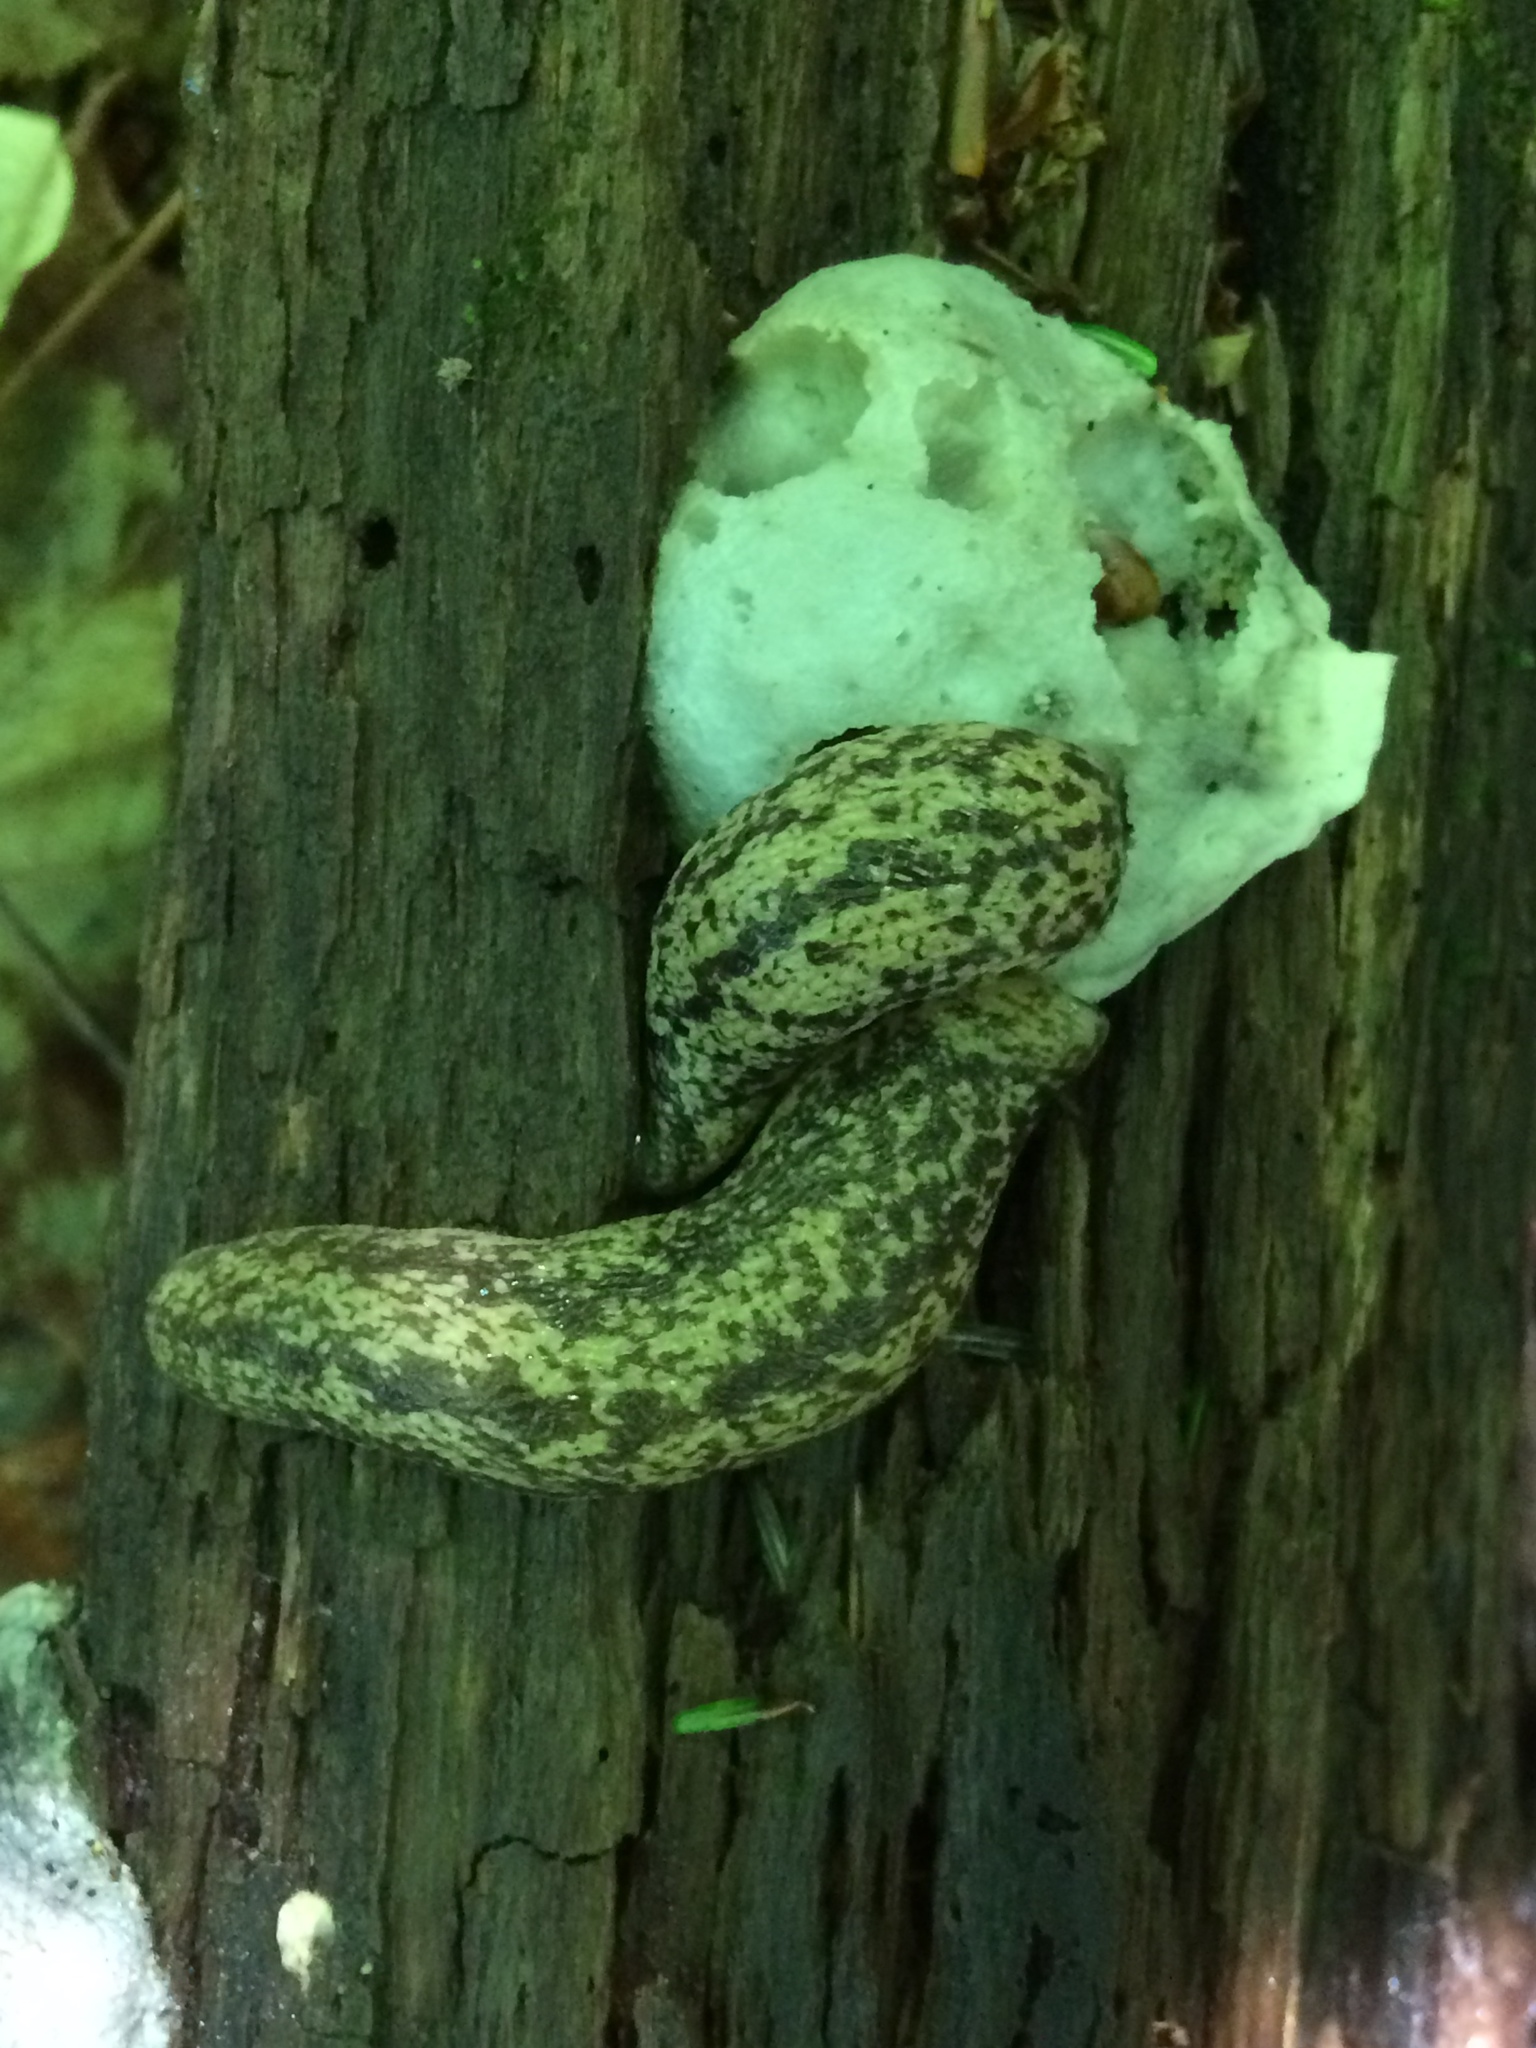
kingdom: Animalia
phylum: Mollusca
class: Gastropoda
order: Stylommatophora
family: Philomycidae
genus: Philomycus
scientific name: Philomycus flexuolaris
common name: Winding mantleslug
